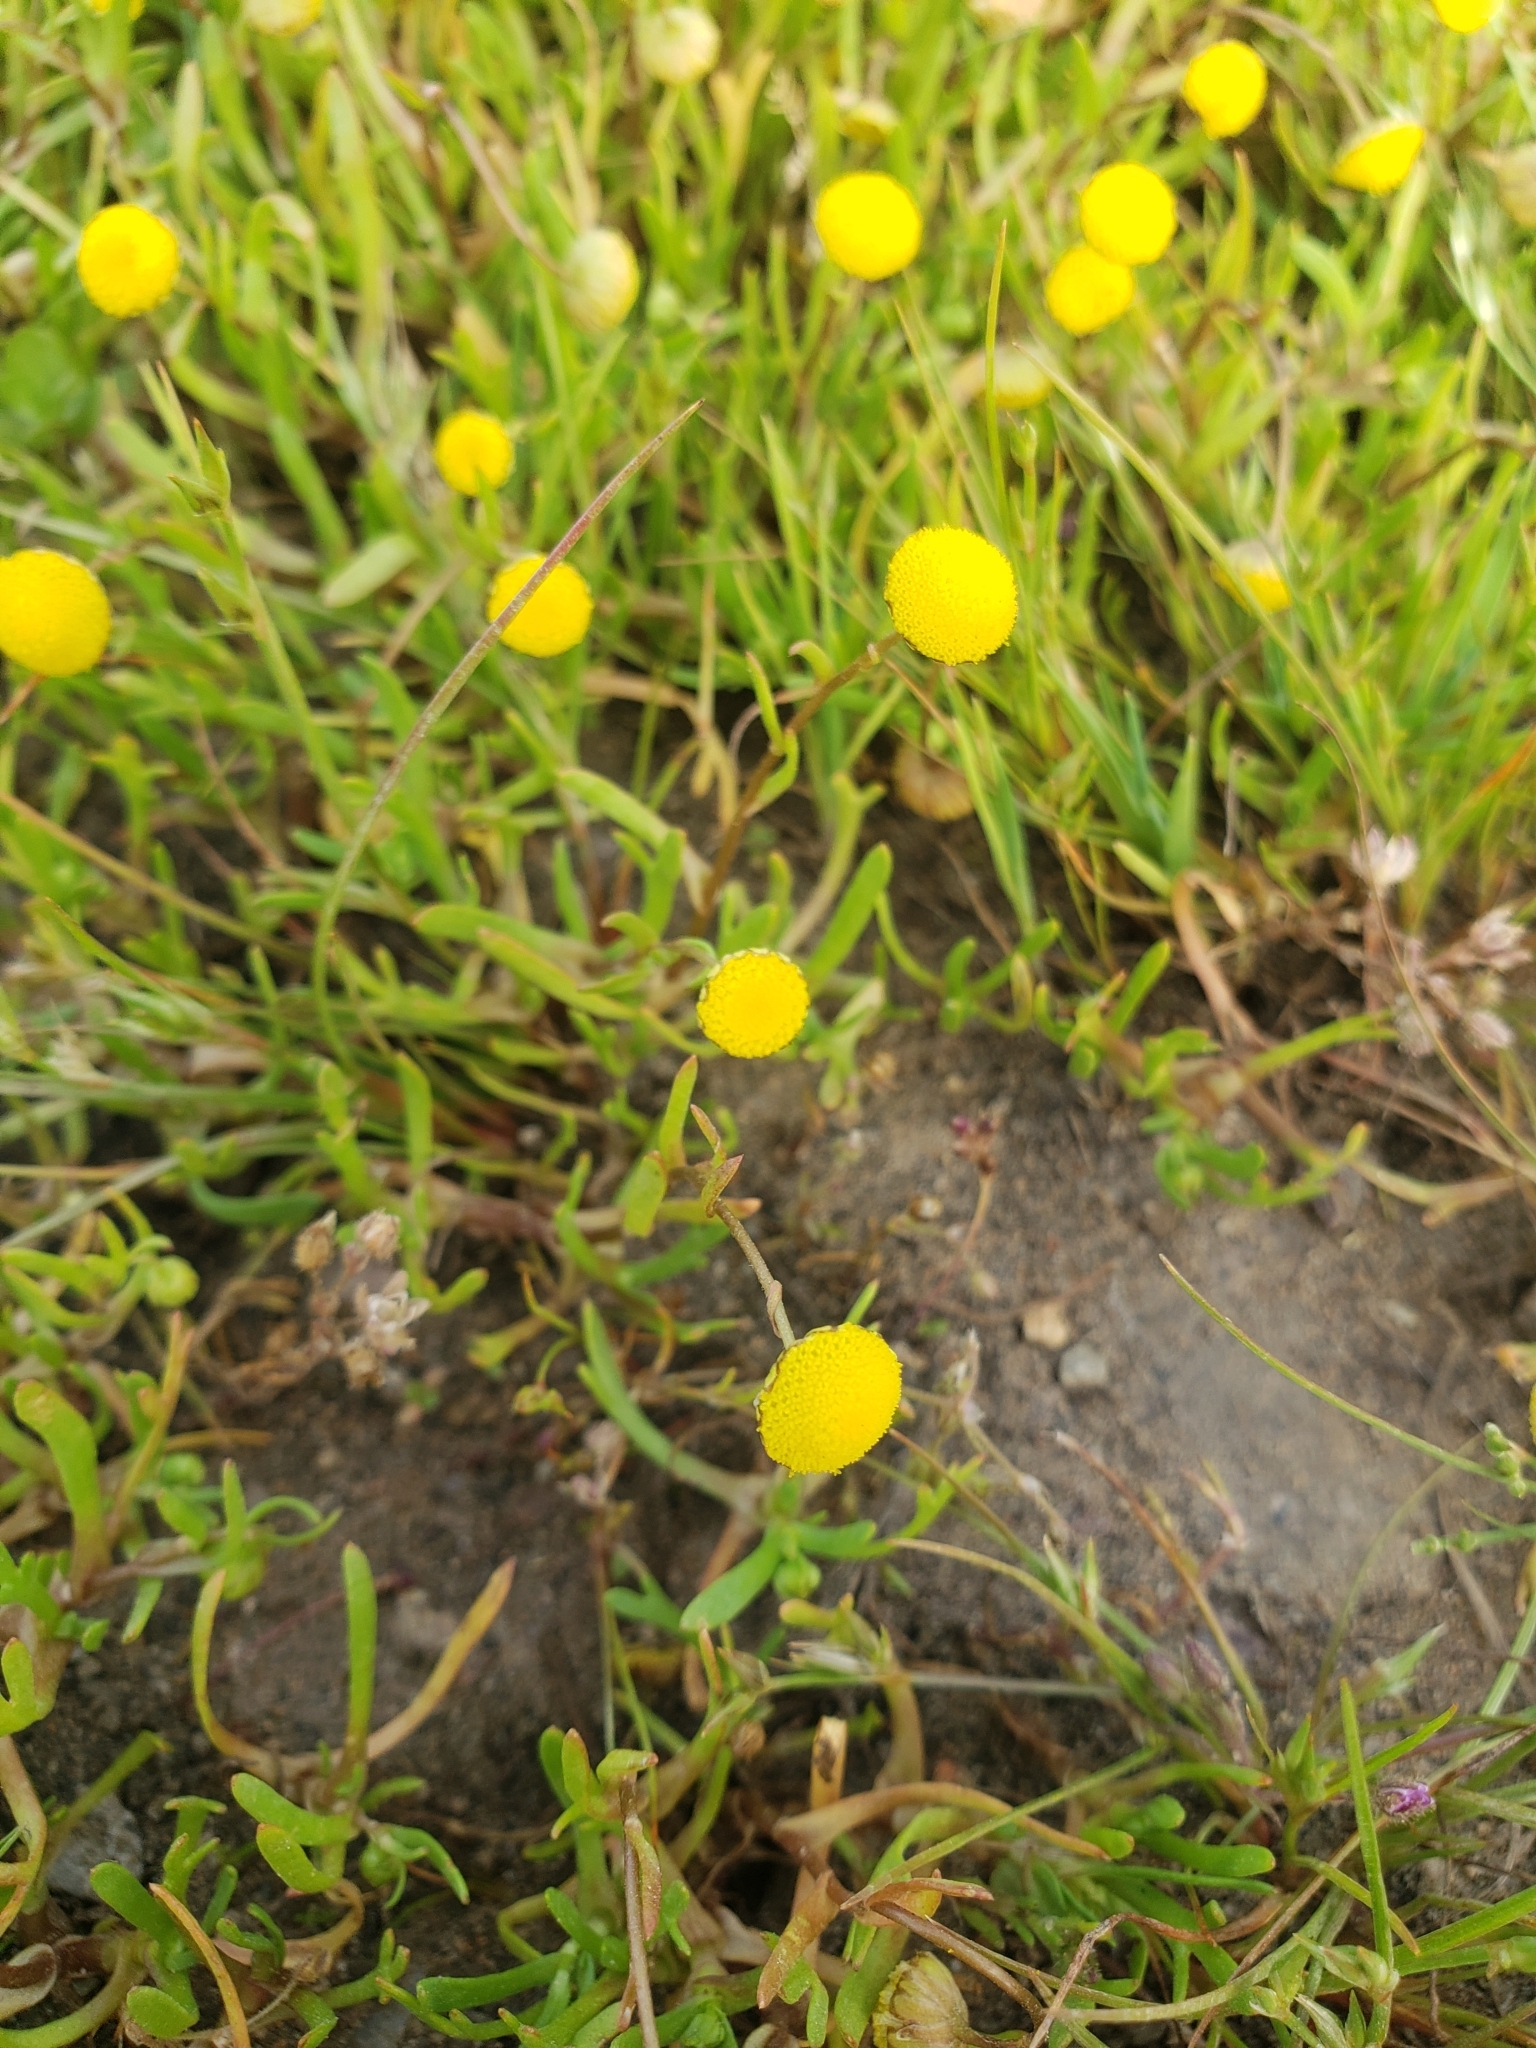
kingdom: Plantae
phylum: Tracheophyta
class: Magnoliopsida
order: Asterales
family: Asteraceae
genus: Cotula
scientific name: Cotula coronopifolia
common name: Buttonweed
